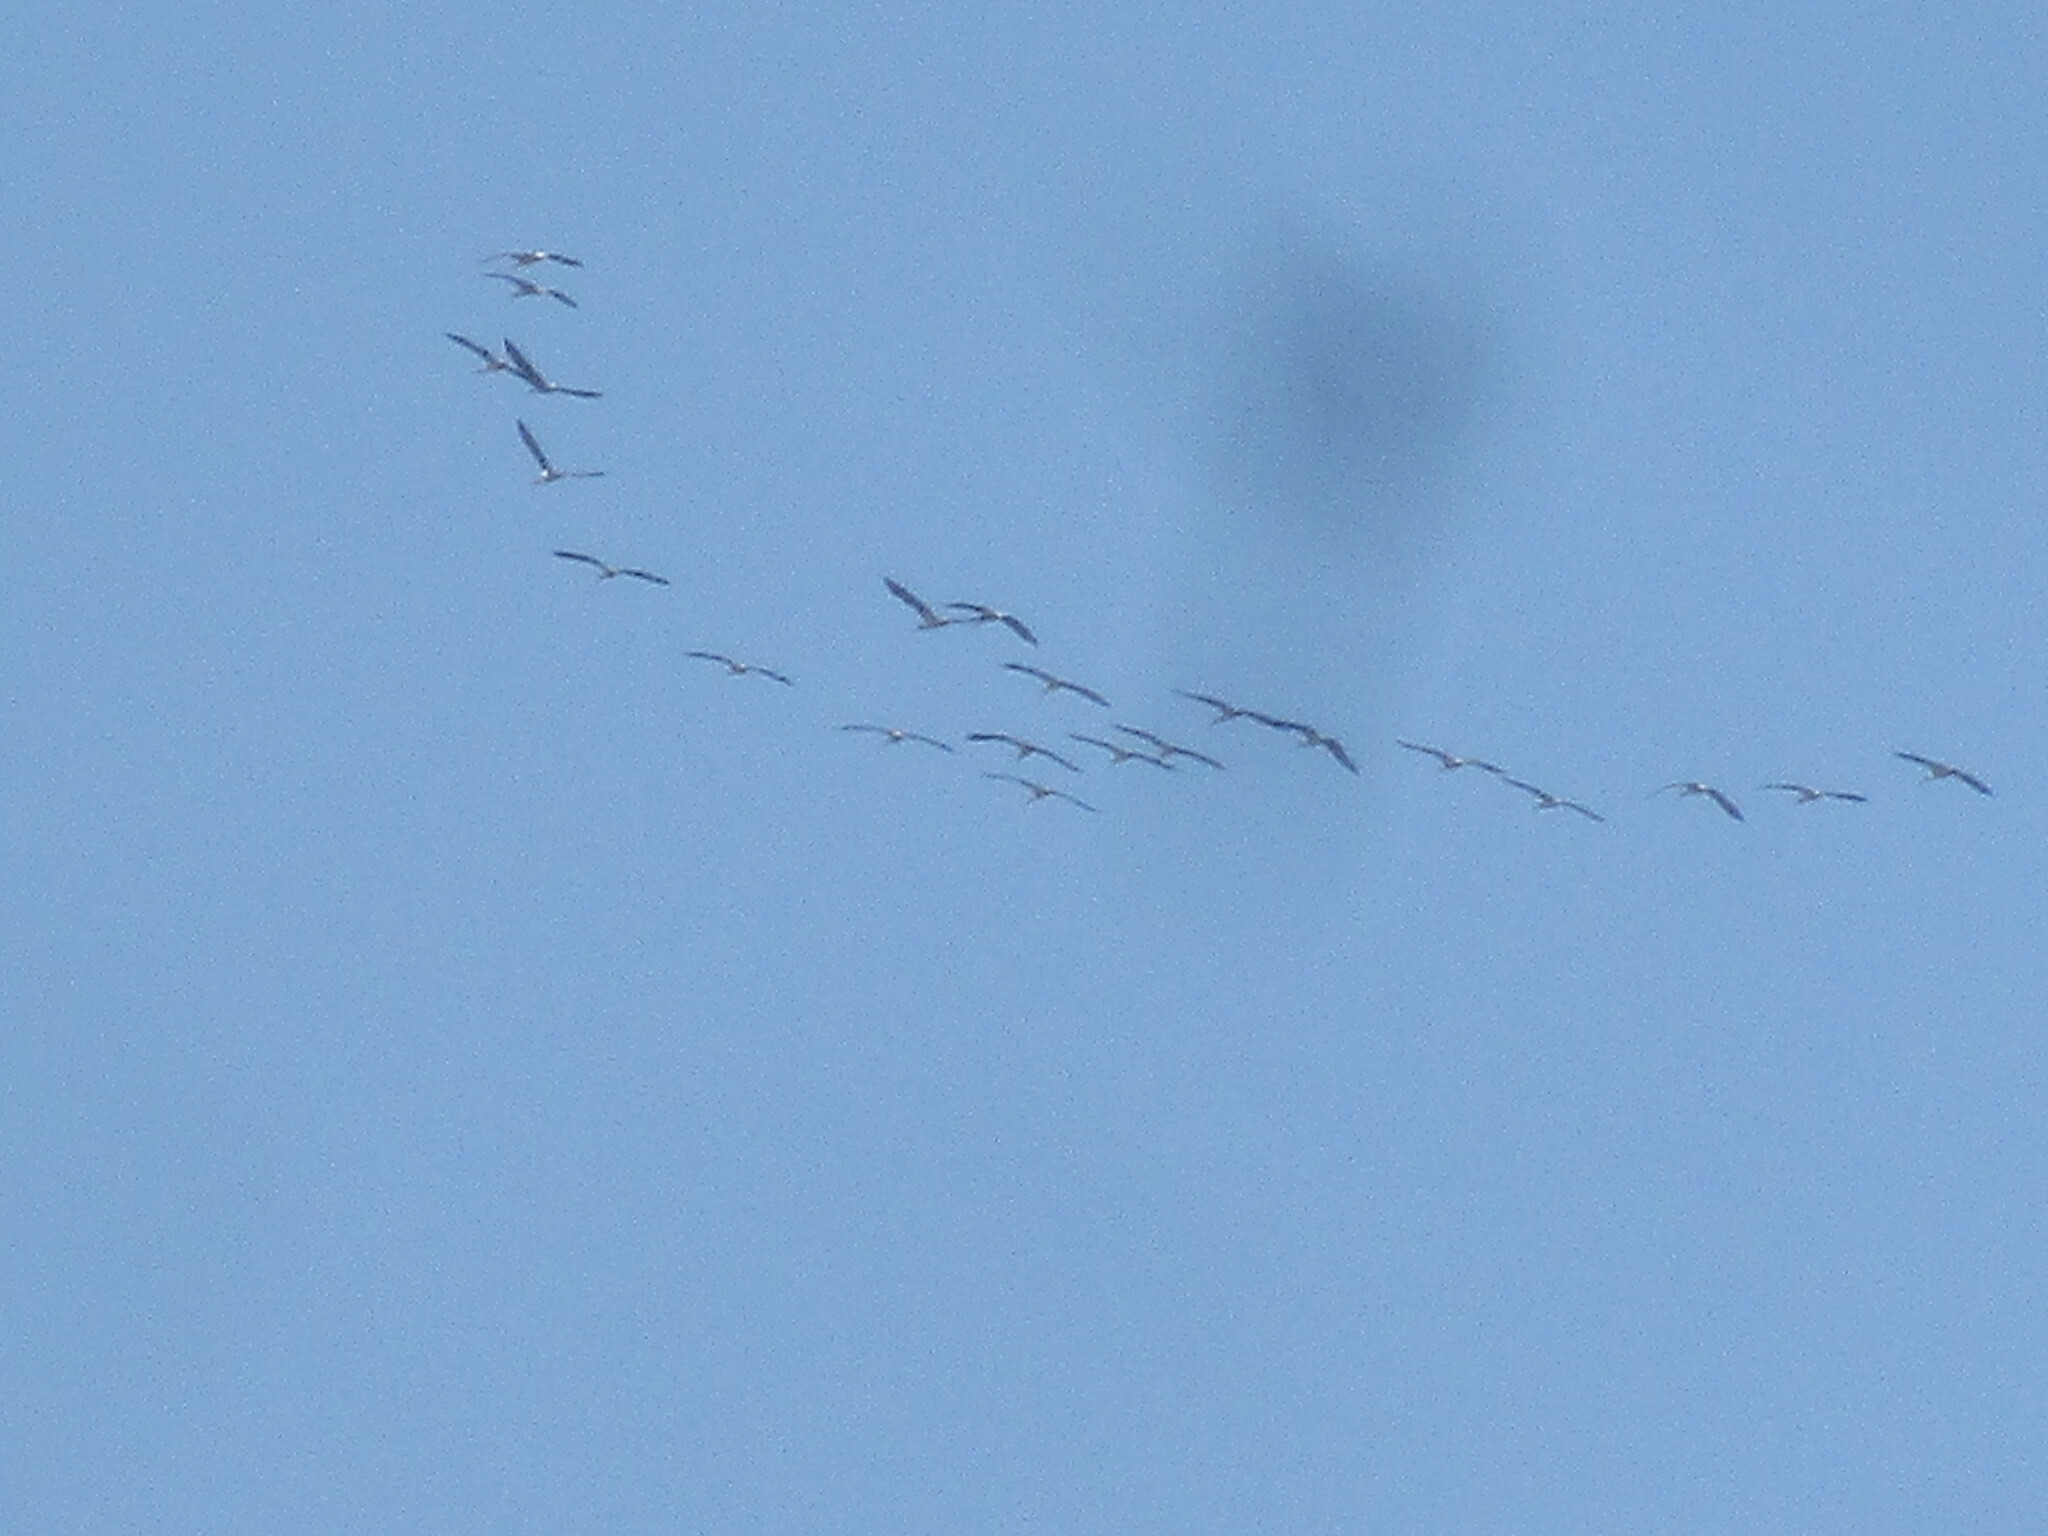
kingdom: Animalia
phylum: Chordata
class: Aves
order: Pelecaniformes
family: Threskiornithidae
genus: Threskiornis
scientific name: Threskiornis spinicollis
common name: Straw-necked ibis
